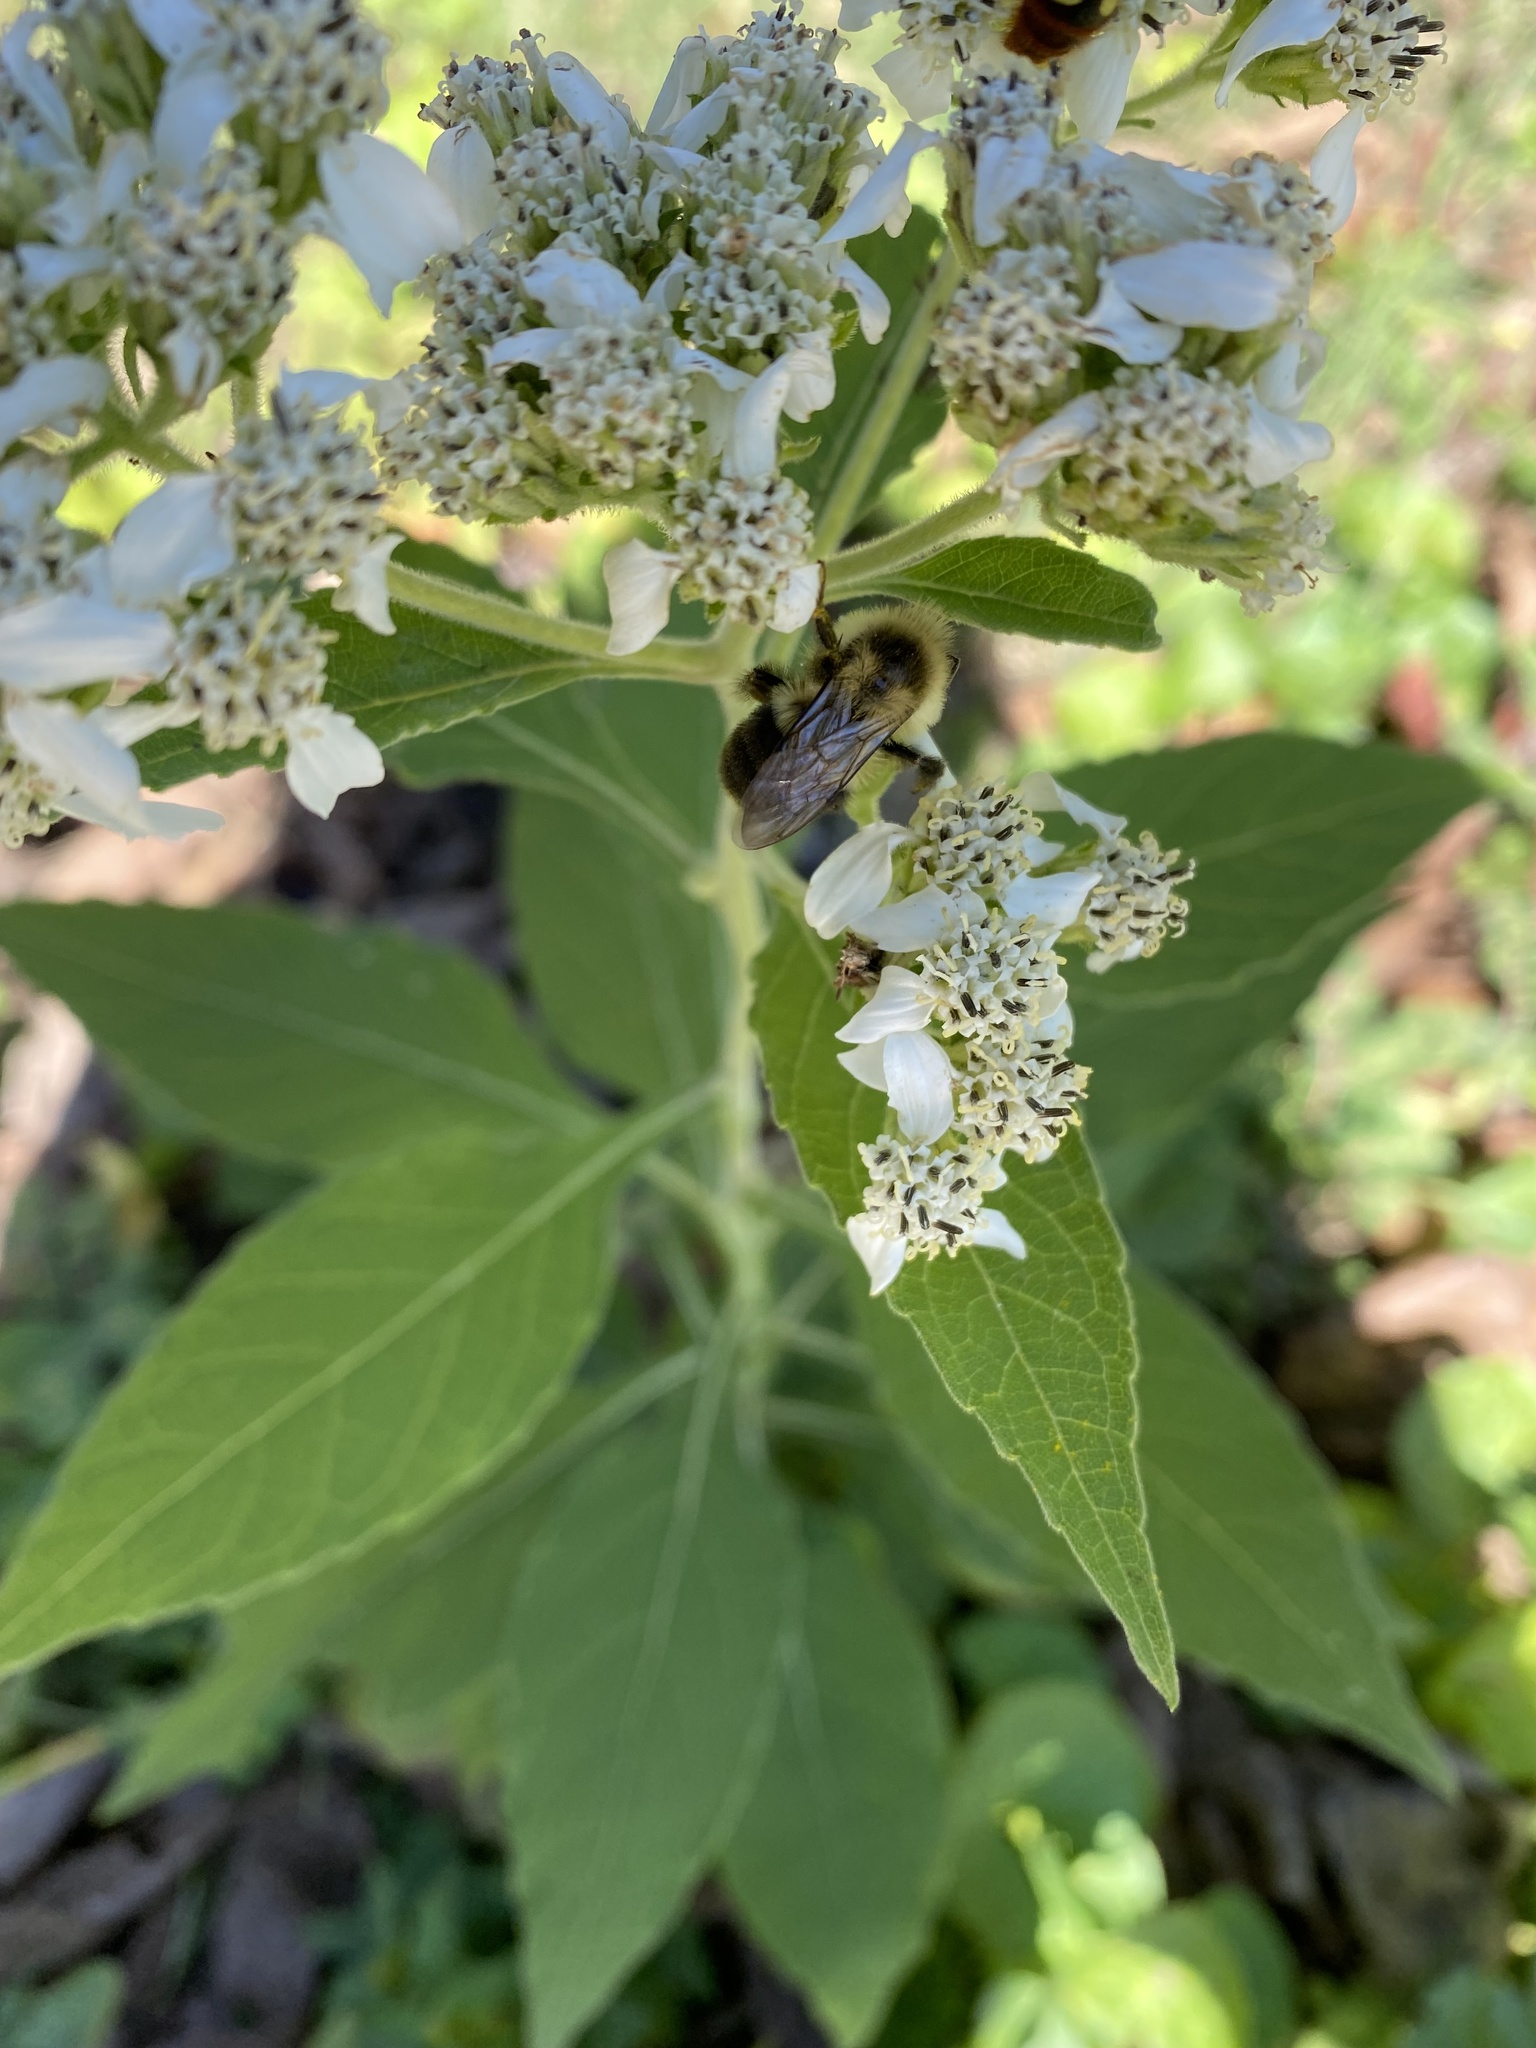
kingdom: Animalia
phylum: Arthropoda
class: Insecta
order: Hymenoptera
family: Apidae
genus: Bombus
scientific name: Bombus impatiens
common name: Common eastern bumble bee
